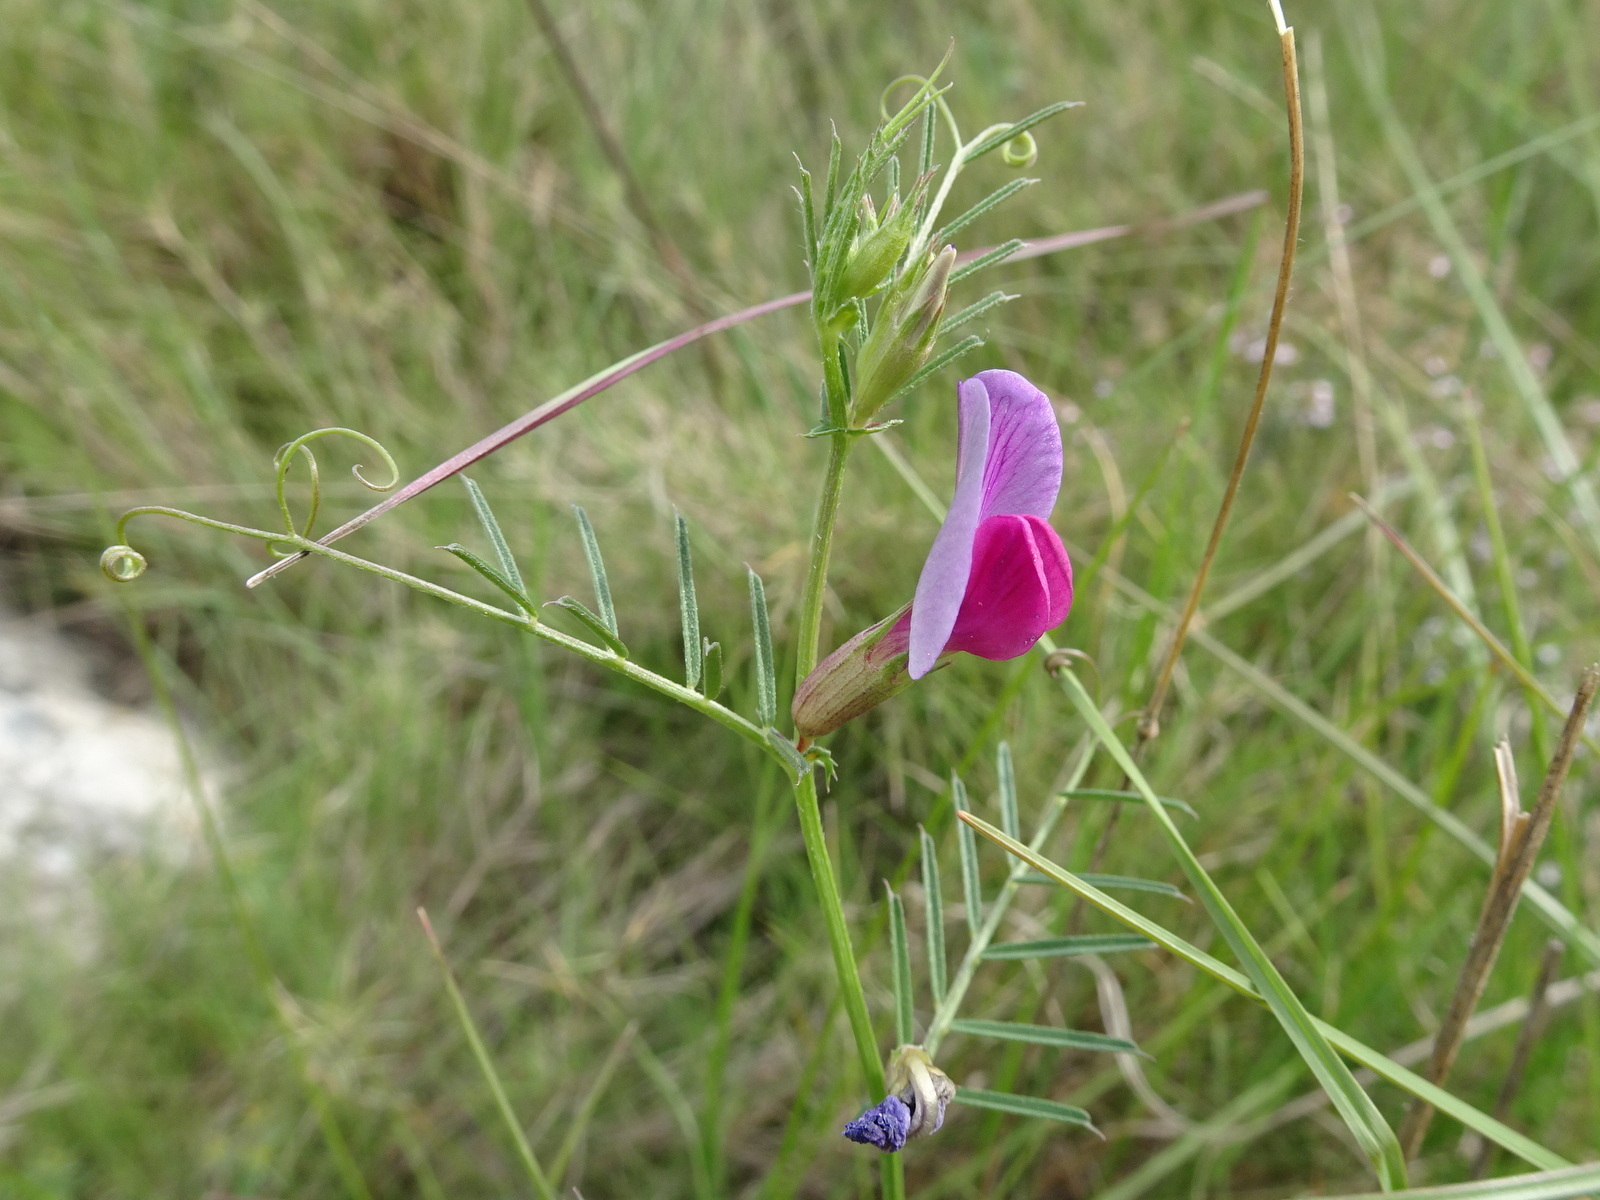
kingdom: Plantae
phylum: Tracheophyta
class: Magnoliopsida
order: Fabales
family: Fabaceae
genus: Vicia
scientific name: Vicia sativa
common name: Garden vetch
